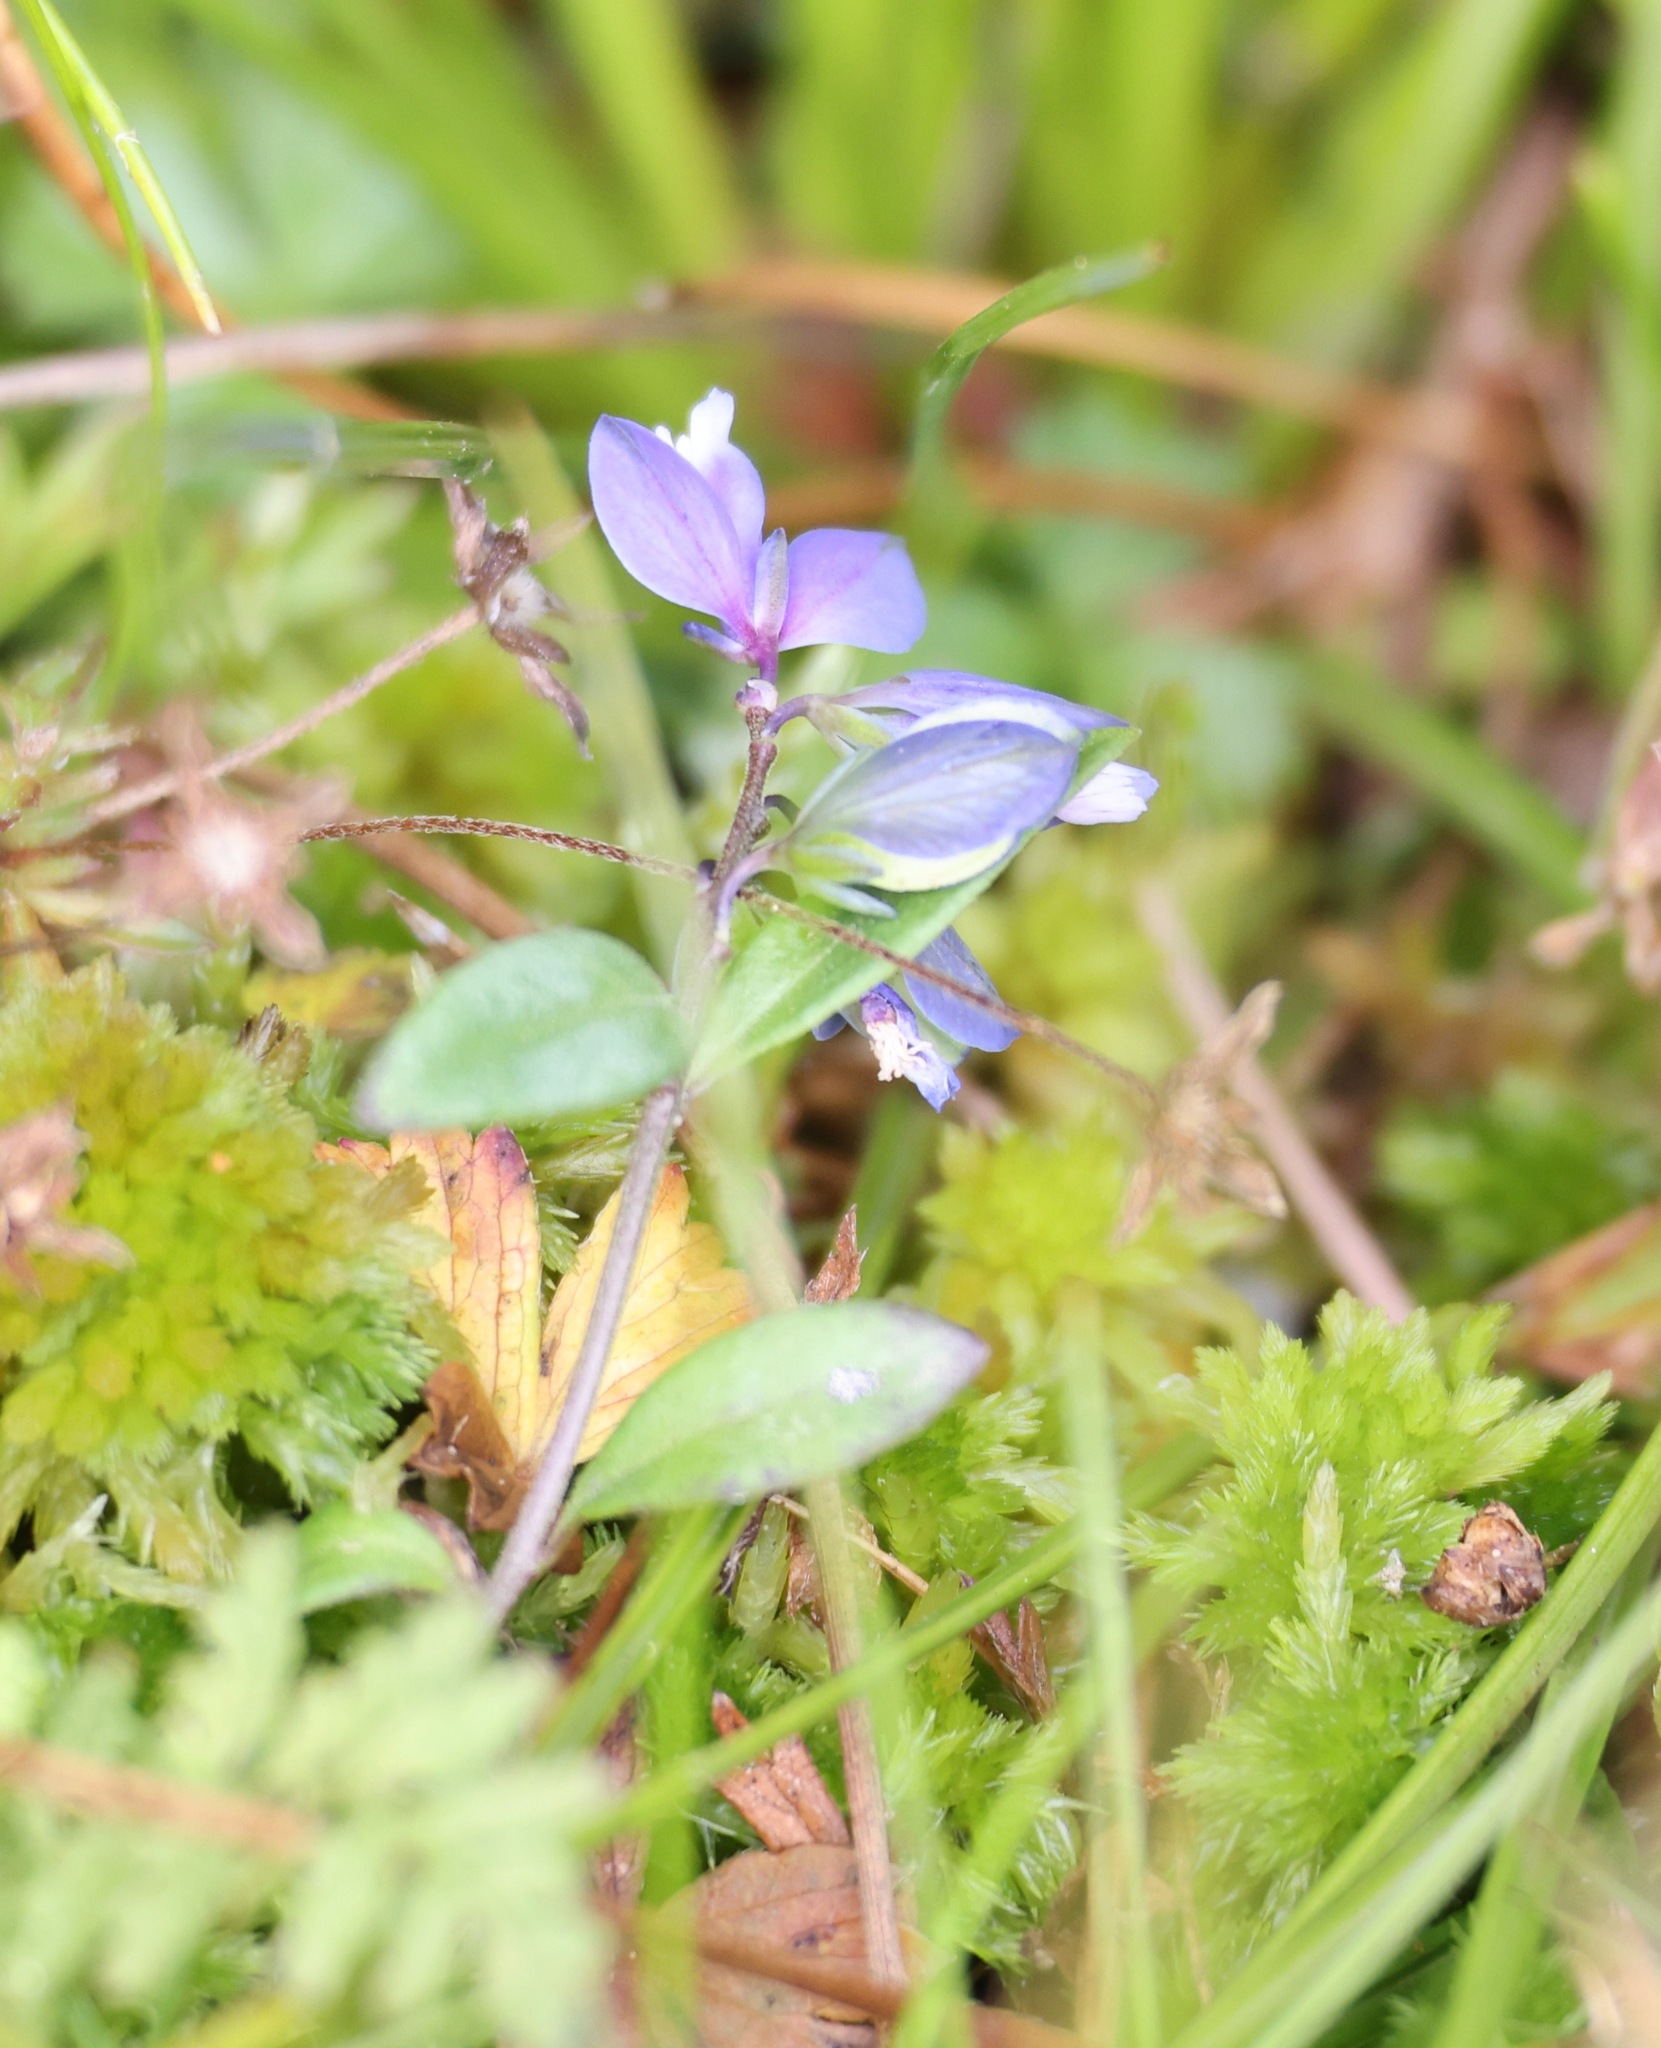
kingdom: Plantae
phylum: Tracheophyta
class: Magnoliopsida
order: Fabales
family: Polygalaceae
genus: Polygala
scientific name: Polygala serpyllifolia
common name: Heath milkwort
